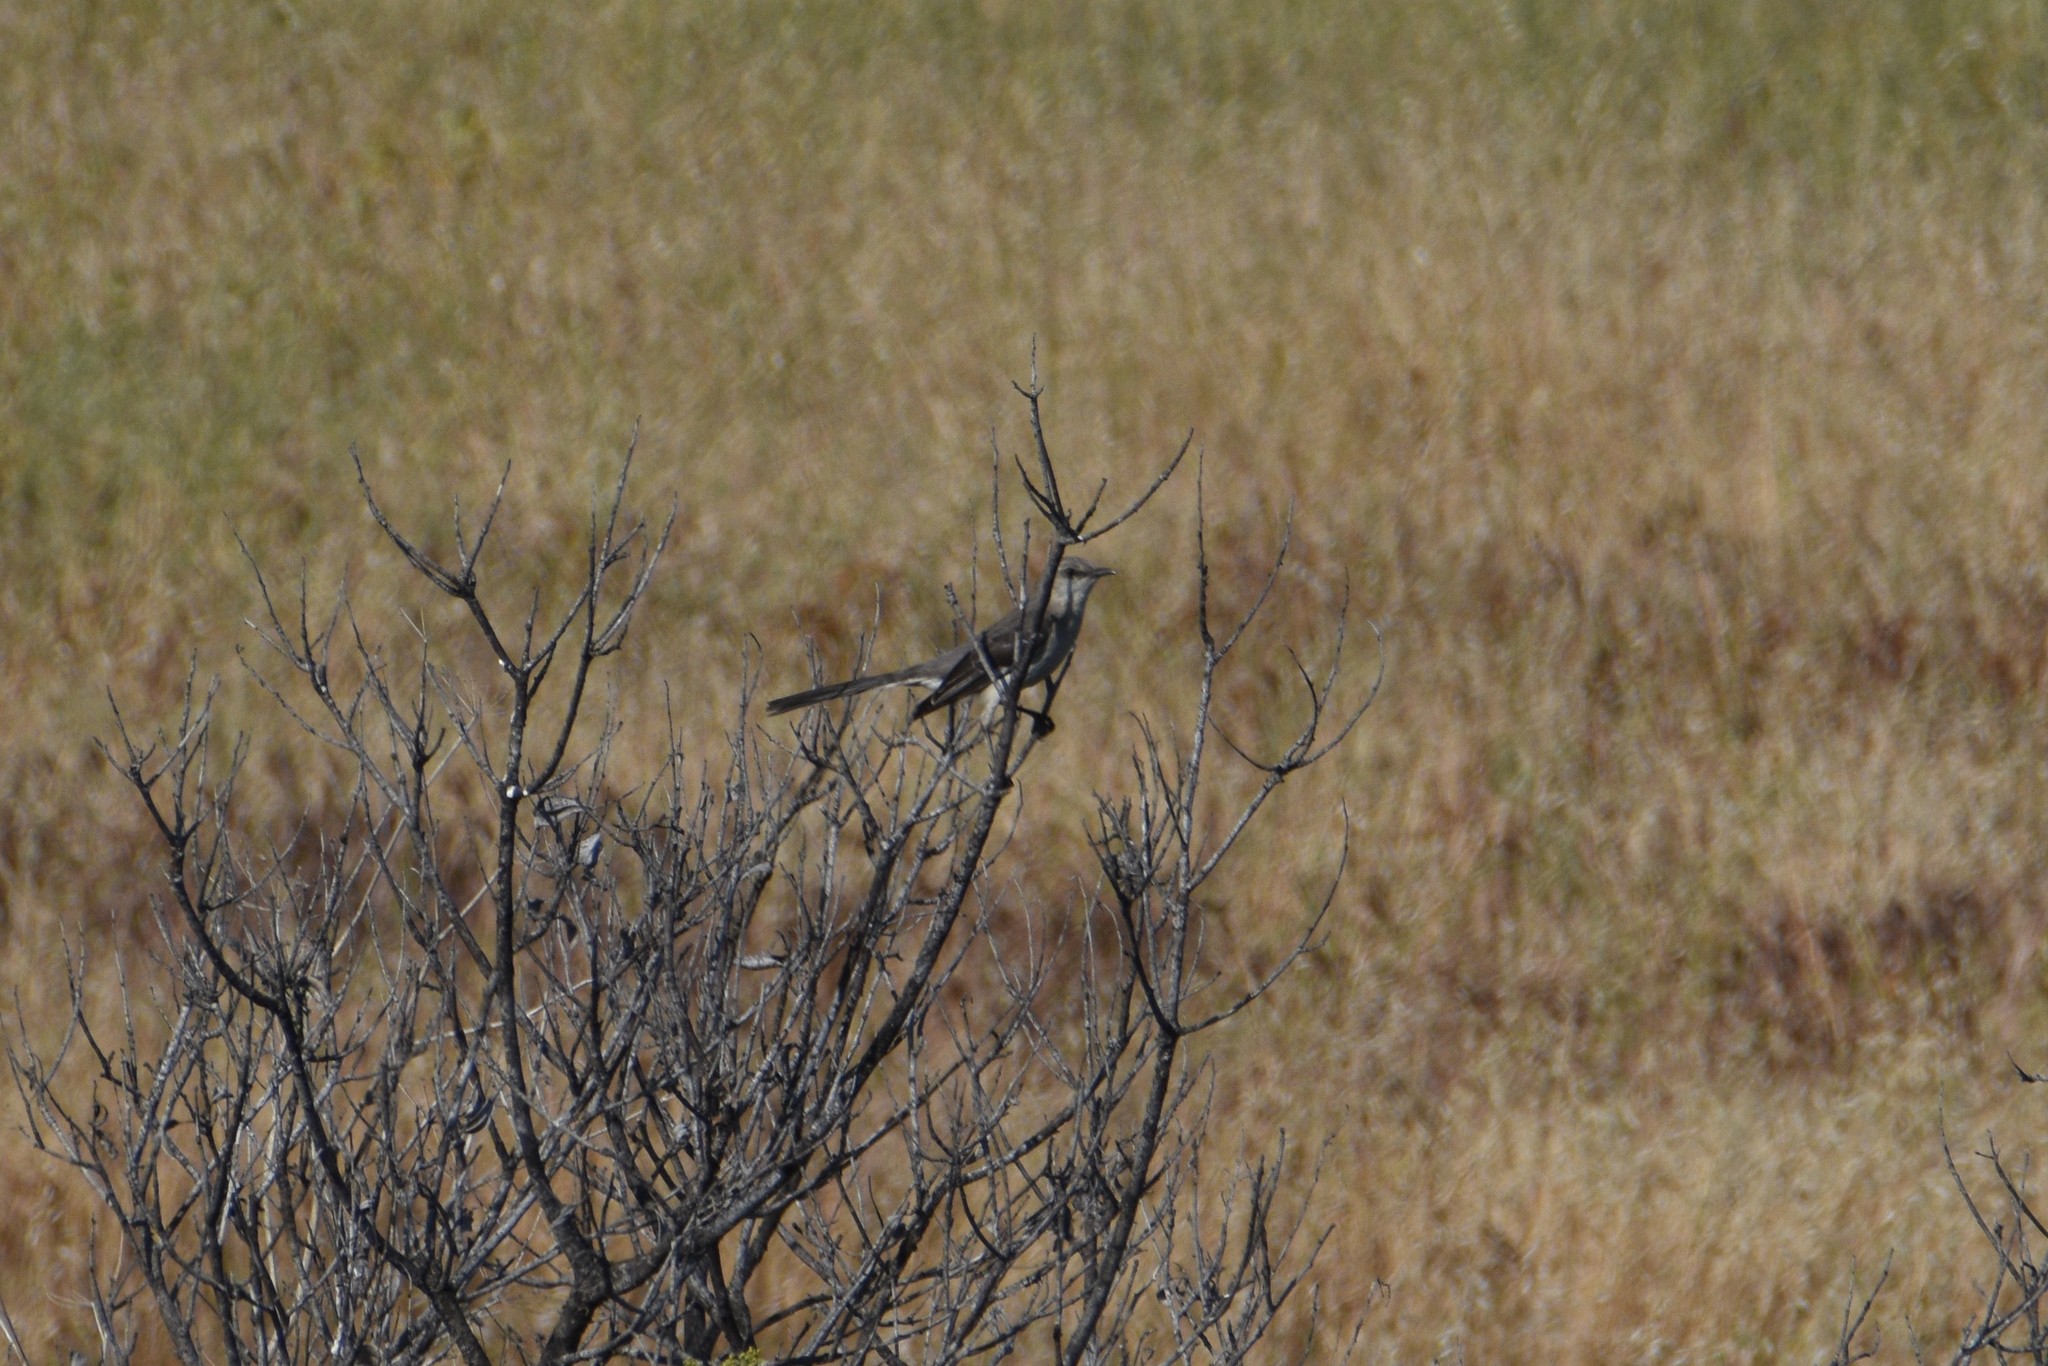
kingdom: Animalia
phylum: Chordata
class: Aves
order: Passeriformes
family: Mimidae
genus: Mimus
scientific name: Mimus polyglottos
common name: Northern mockingbird
